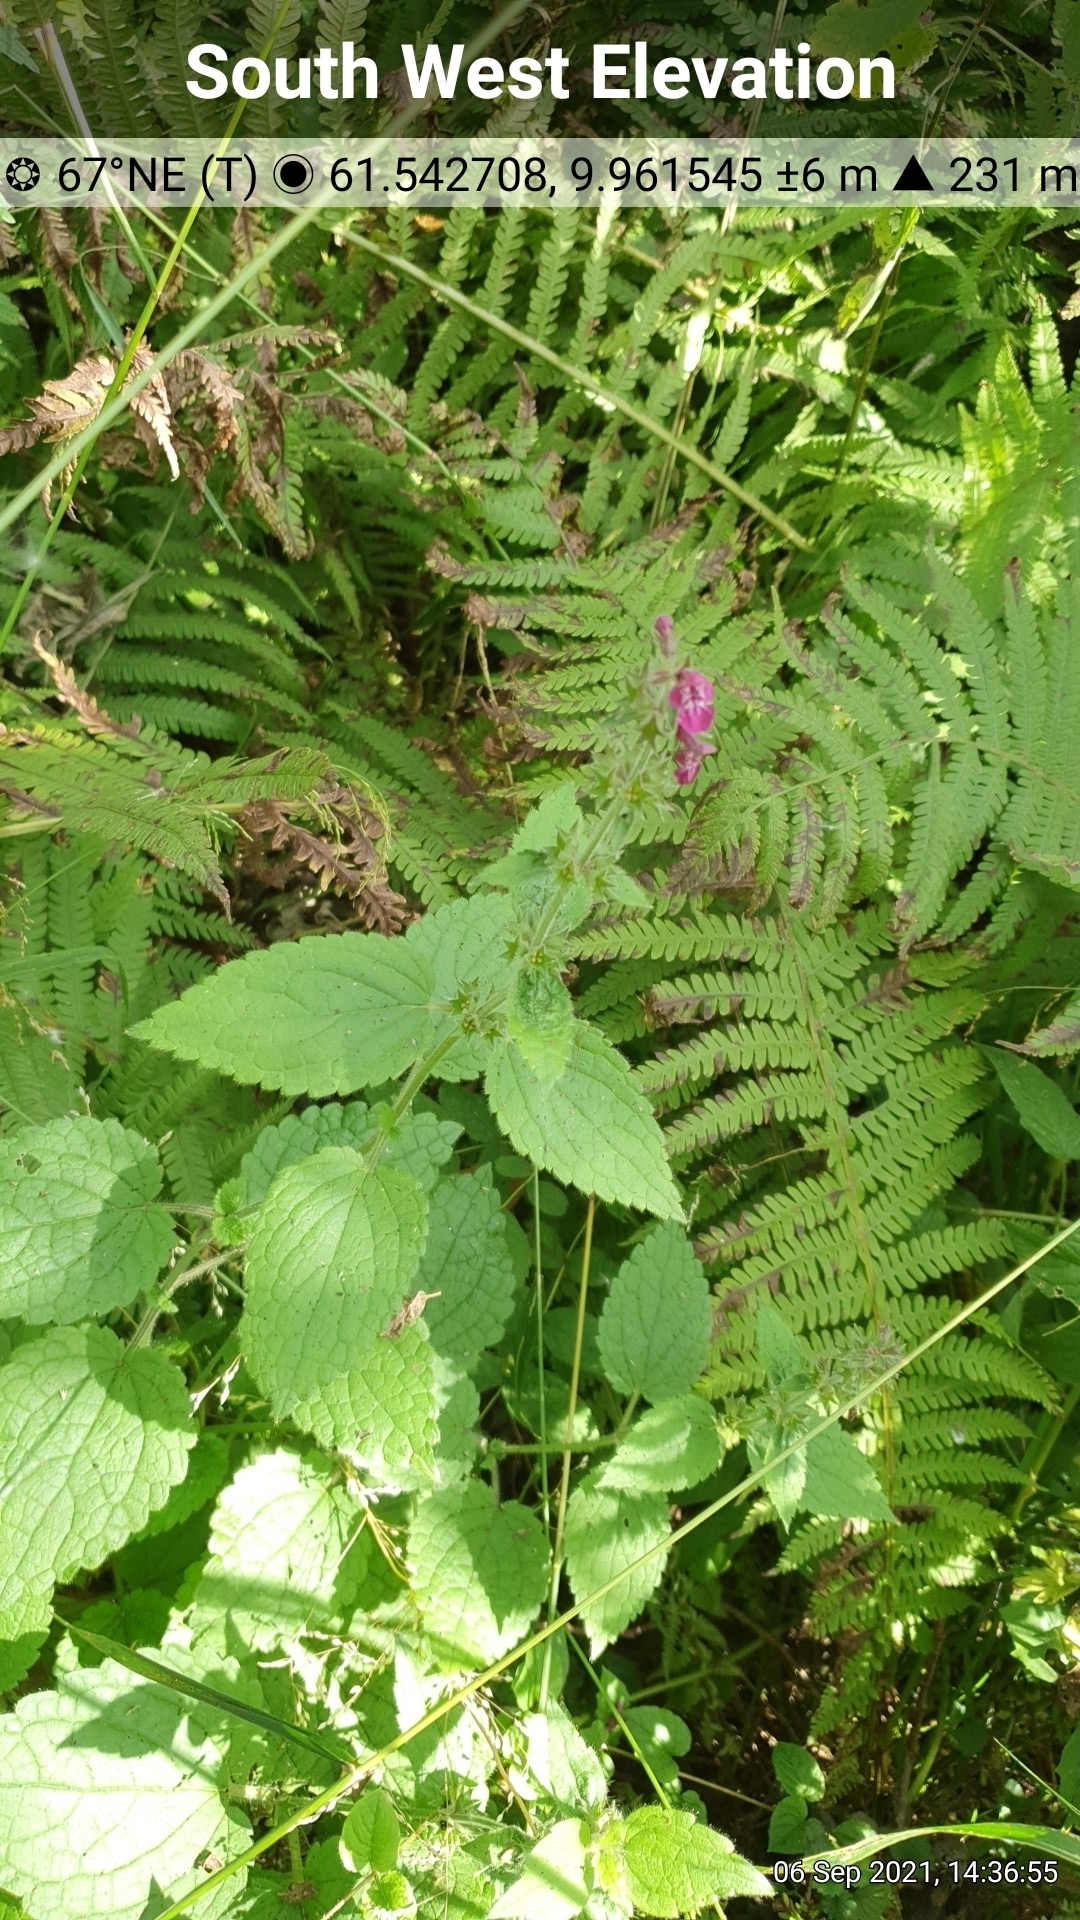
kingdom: Plantae
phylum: Tracheophyta
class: Magnoliopsida
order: Lamiales
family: Lamiaceae
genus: Stachys
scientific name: Stachys sylvatica
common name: Hedge woundwort
